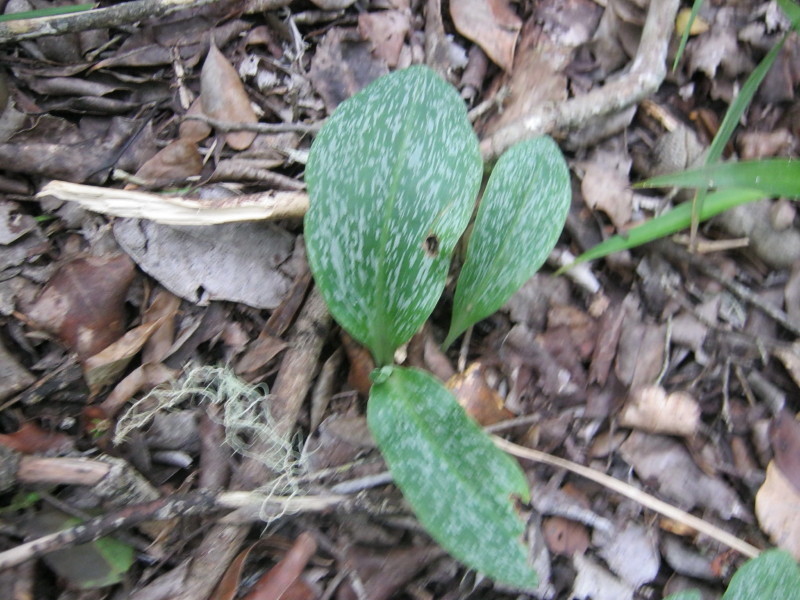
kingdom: Plantae
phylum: Tracheophyta
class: Liliopsida
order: Asparagales
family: Orchidaceae
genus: Habenaria
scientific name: Habenaria arenaria
